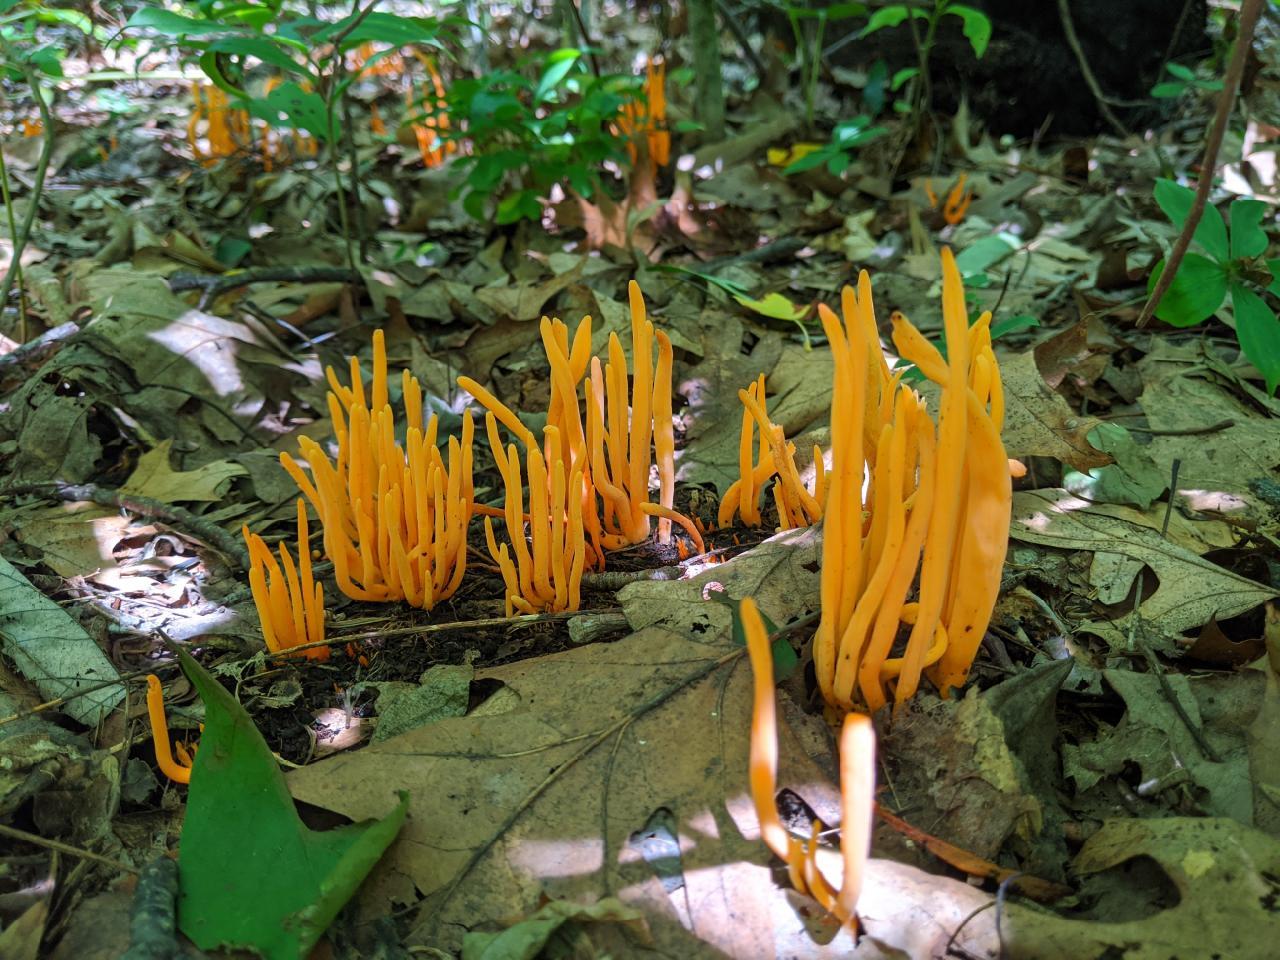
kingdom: Fungi
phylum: Basidiomycota
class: Agaricomycetes
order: Agaricales
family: Clavariaceae
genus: Clavulinopsis
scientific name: Clavulinopsis aurantiocinnabarina
